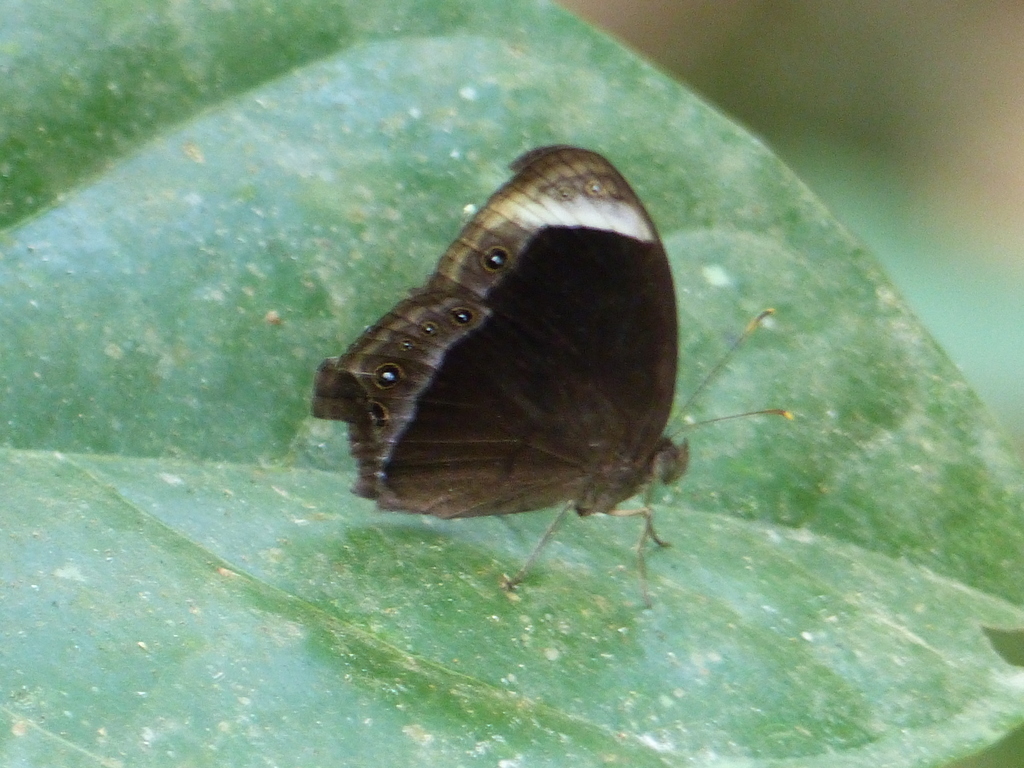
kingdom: Animalia
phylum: Arthropoda
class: Insecta
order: Lepidoptera
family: Nymphalidae
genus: Mycalesis
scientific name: Mycalesis anaxias
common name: White-bar bushbrown
